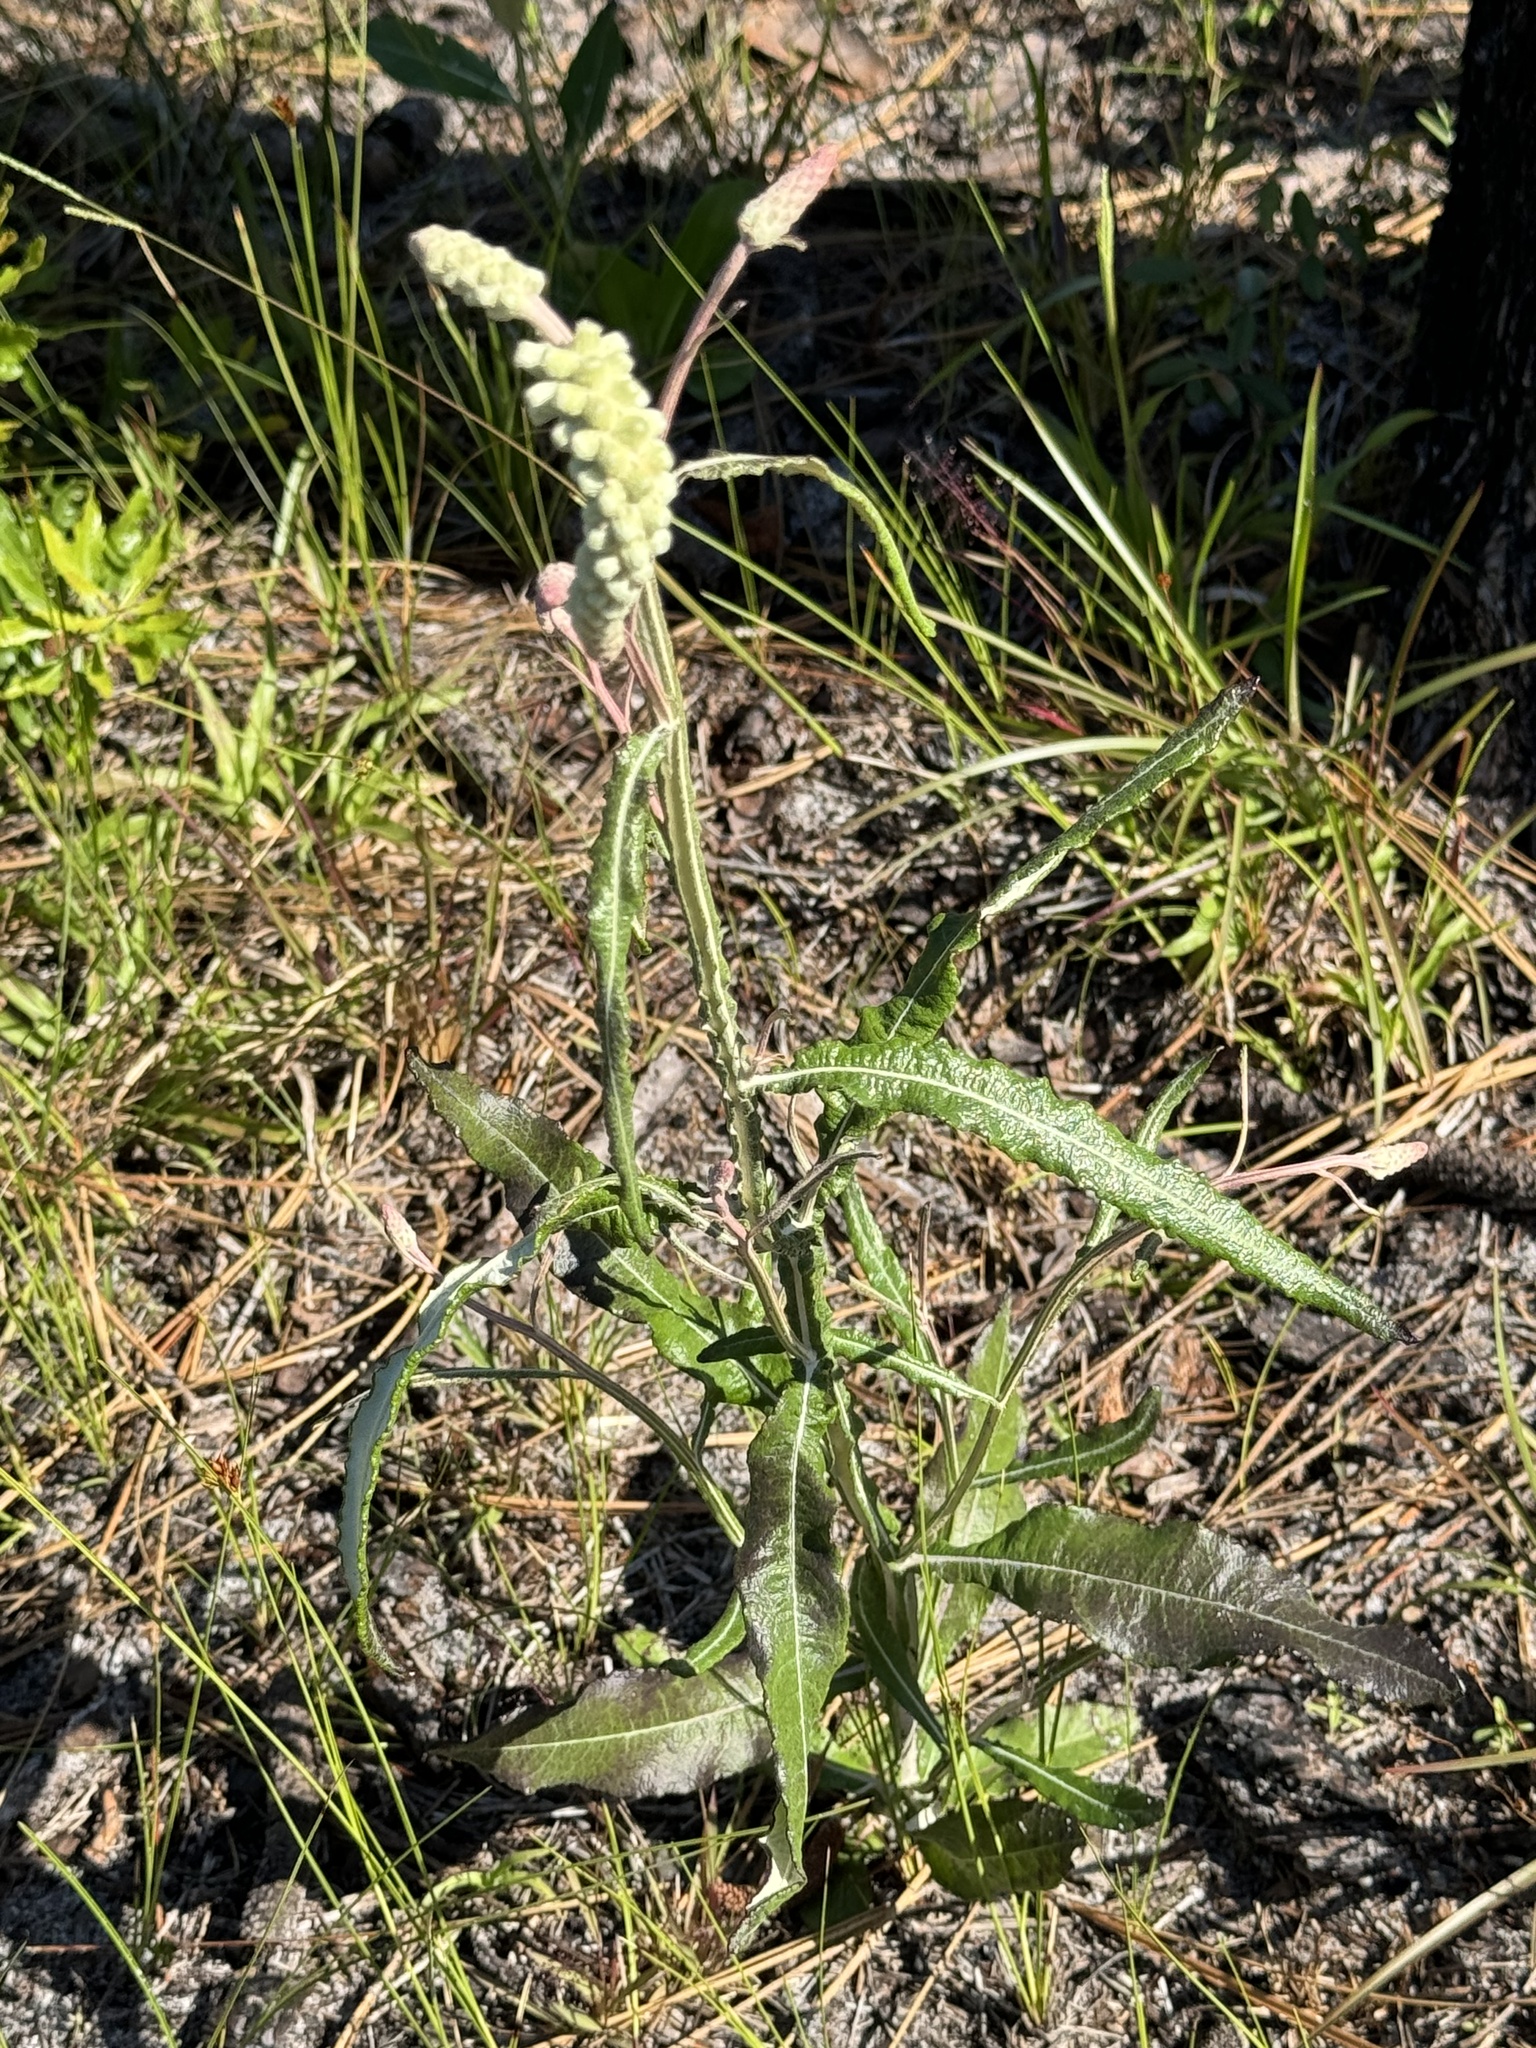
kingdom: Plantae
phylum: Tracheophyta
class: Magnoliopsida
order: Asterales
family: Asteraceae
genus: Pterocaulon
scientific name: Pterocaulon pycnostachyum
